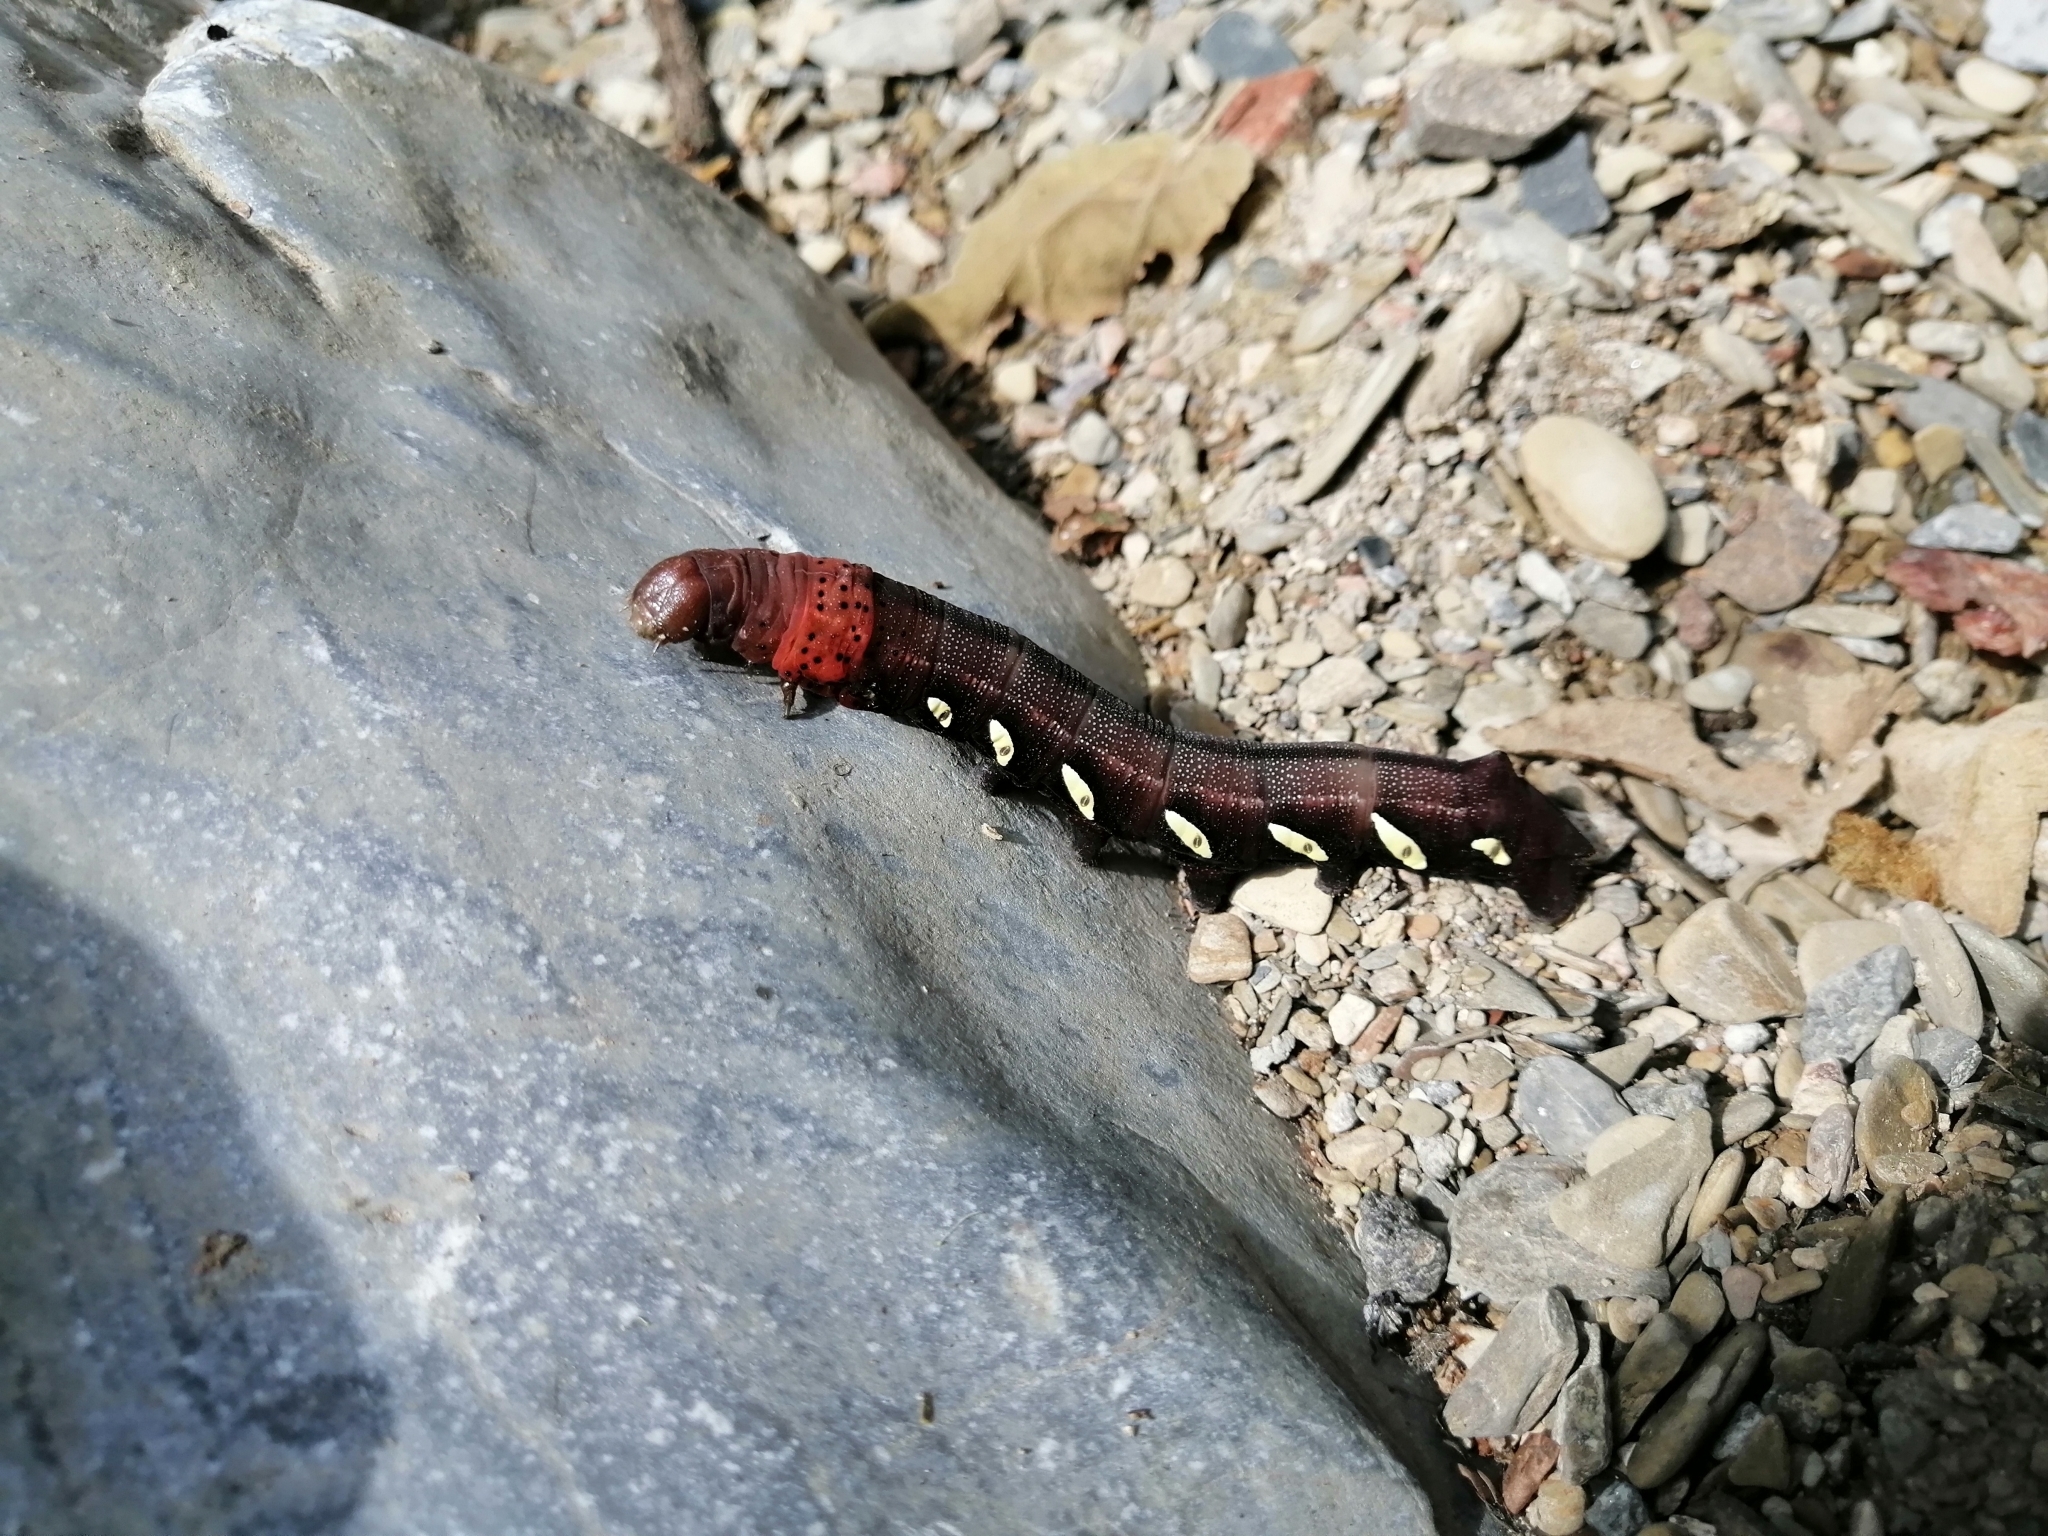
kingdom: Animalia
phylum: Arthropoda
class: Insecta
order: Lepidoptera
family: Sphingidae
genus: Eumorpha
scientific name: Eumorpha satellitia
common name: Satellite sphinx
